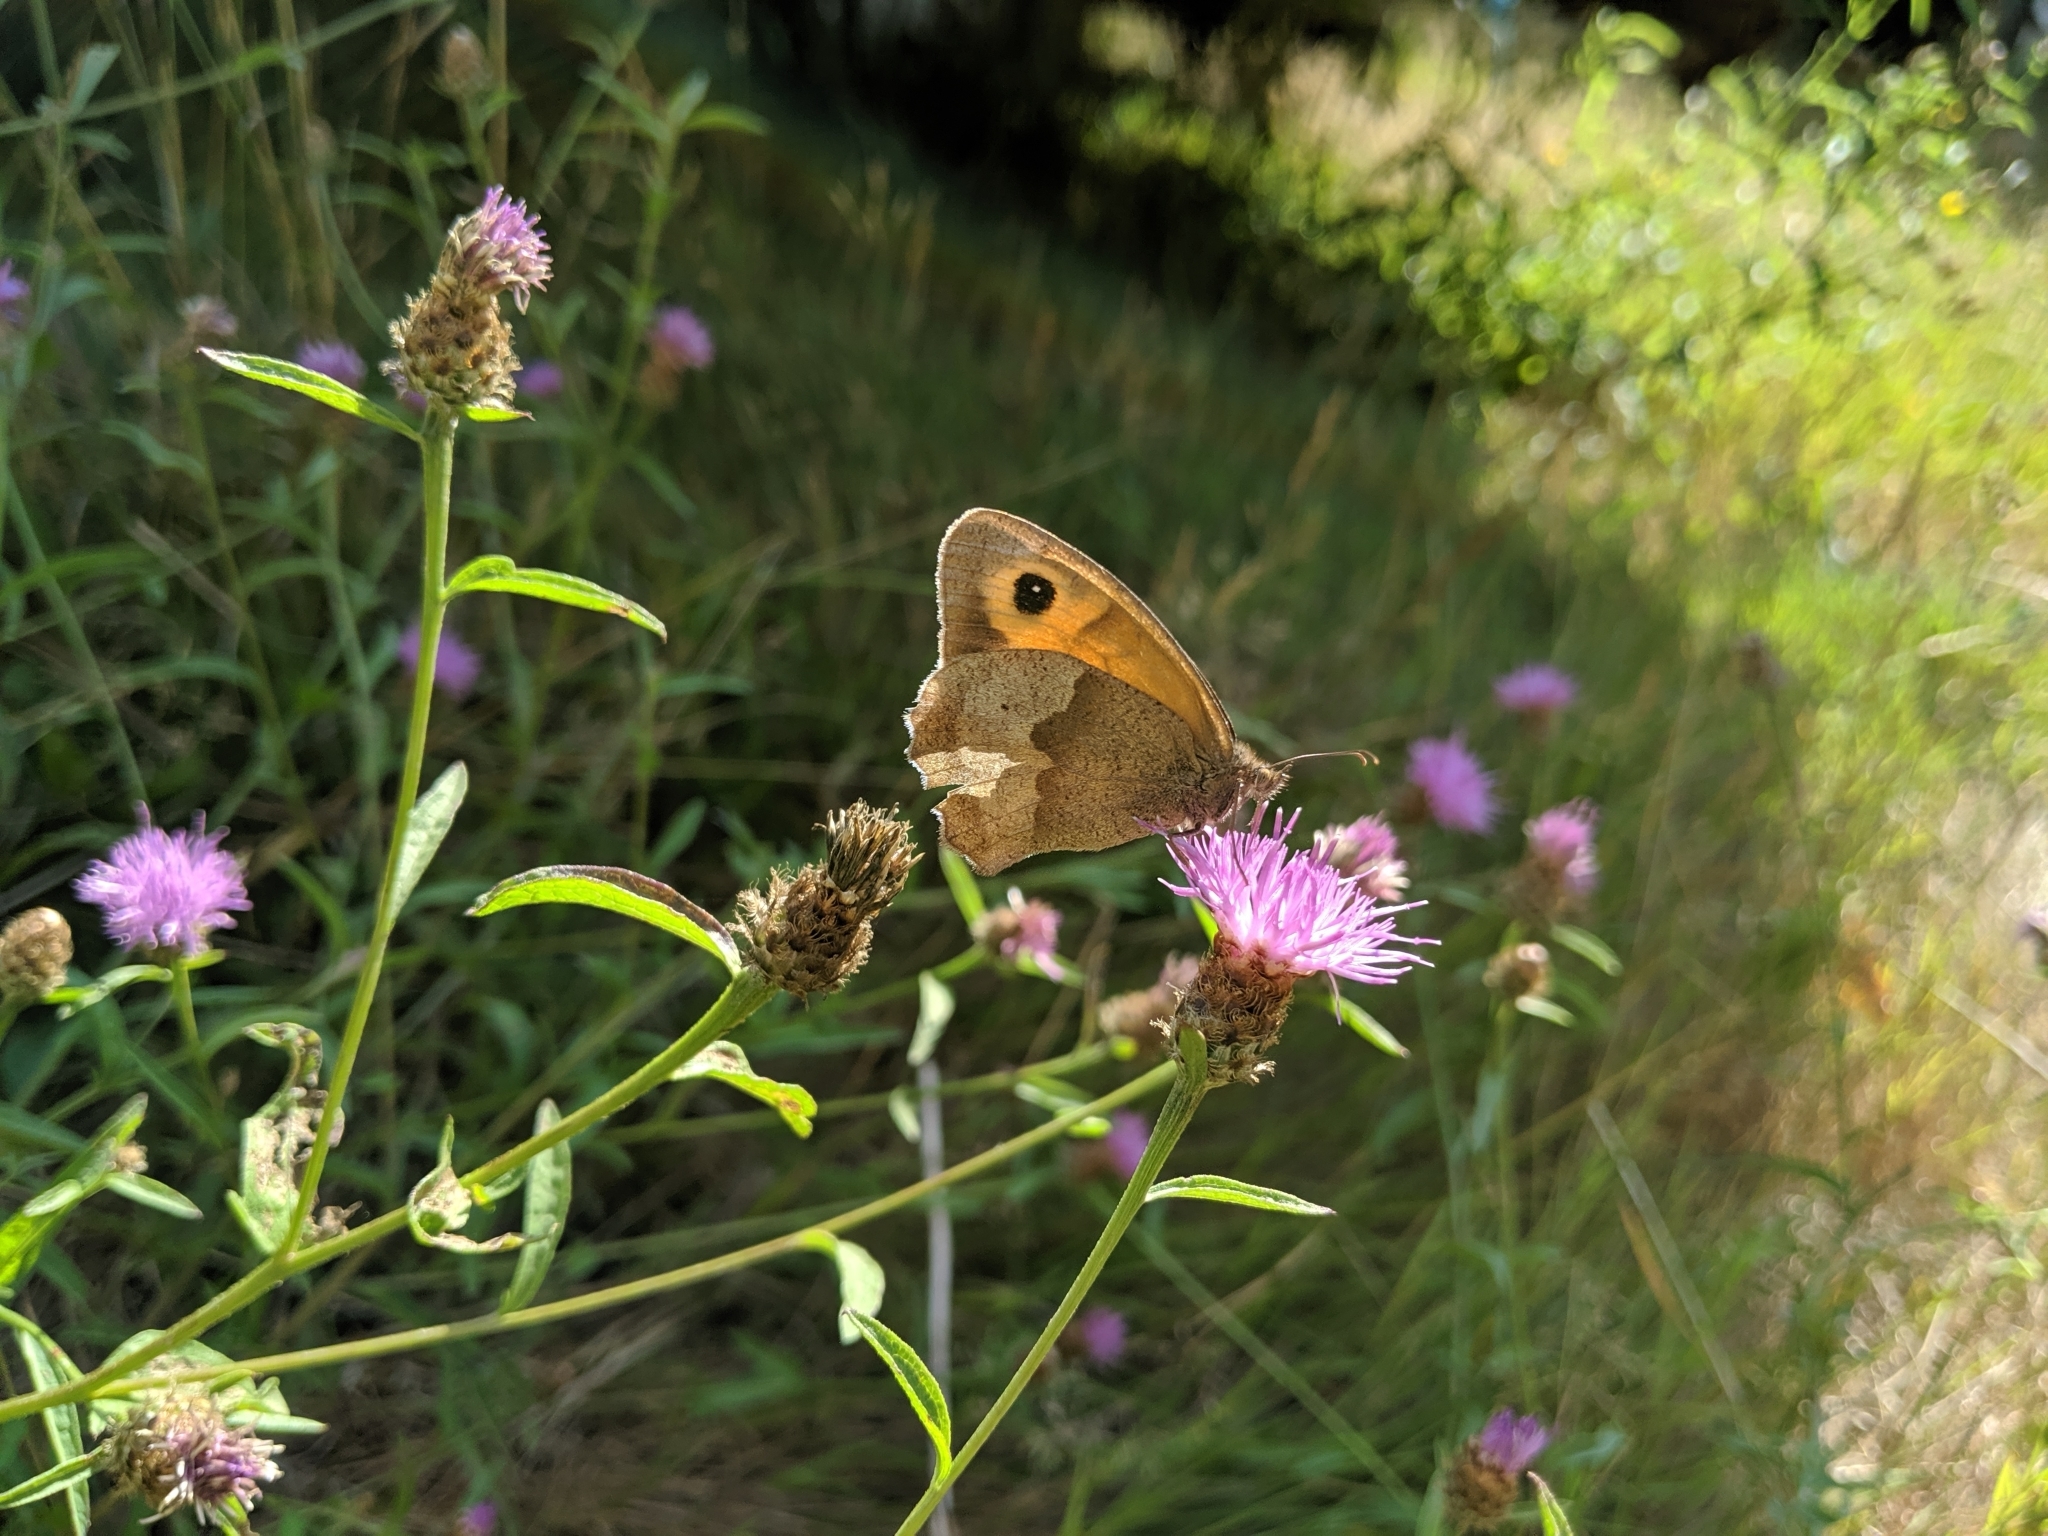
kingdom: Animalia
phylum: Arthropoda
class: Insecta
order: Lepidoptera
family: Nymphalidae
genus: Maniola
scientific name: Maniola jurtina
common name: Meadow brown
